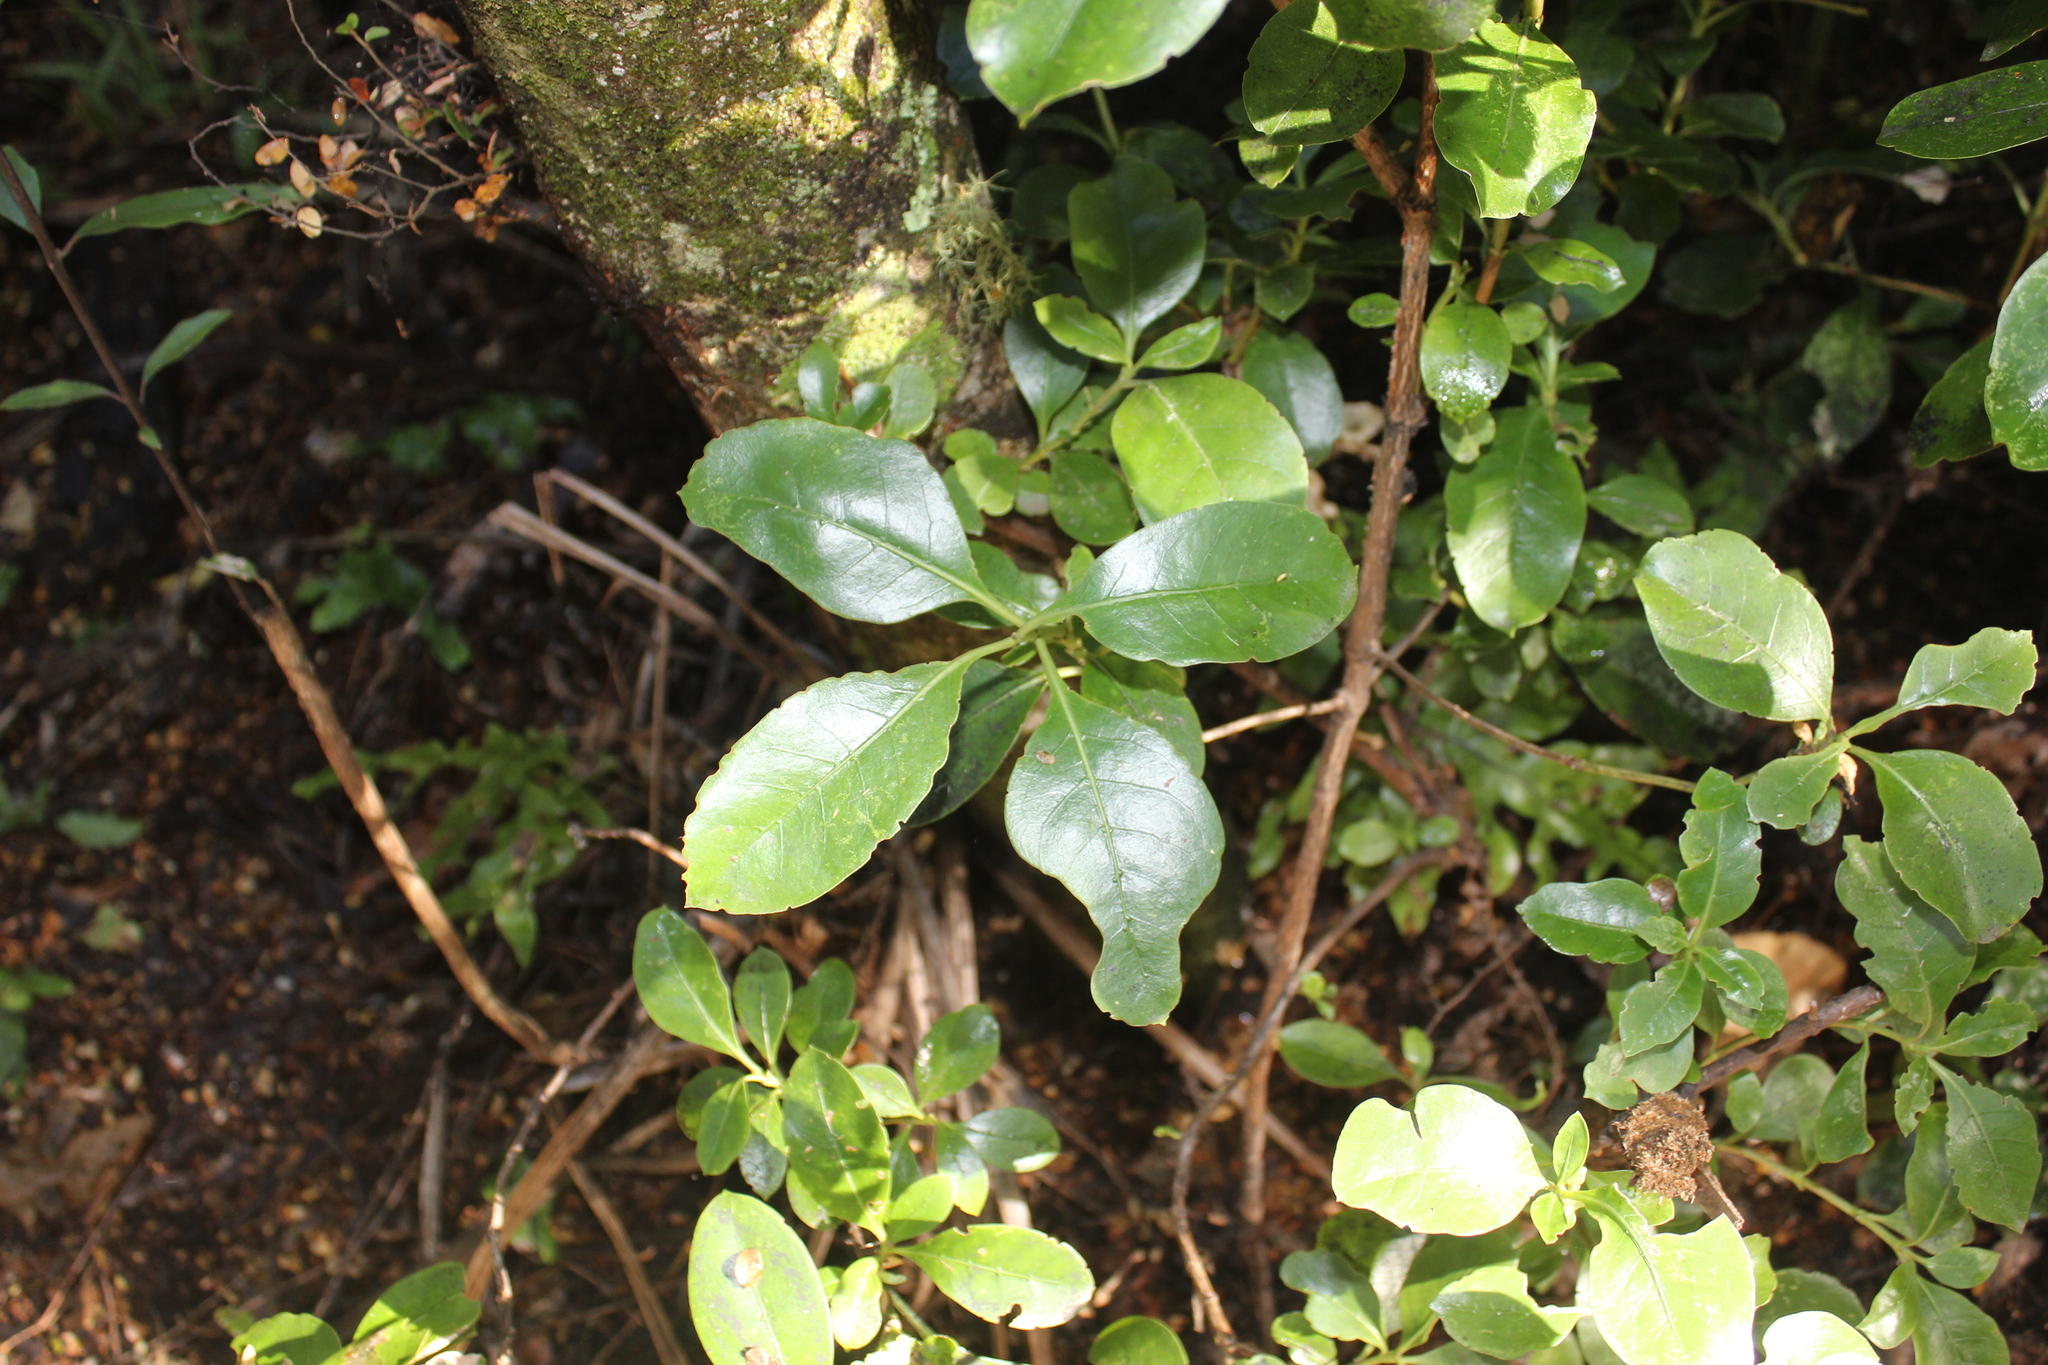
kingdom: Plantae
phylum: Tracheophyta
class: Magnoliopsida
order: Gentianales
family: Rubiaceae
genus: Coprosma
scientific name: Coprosma lucida
